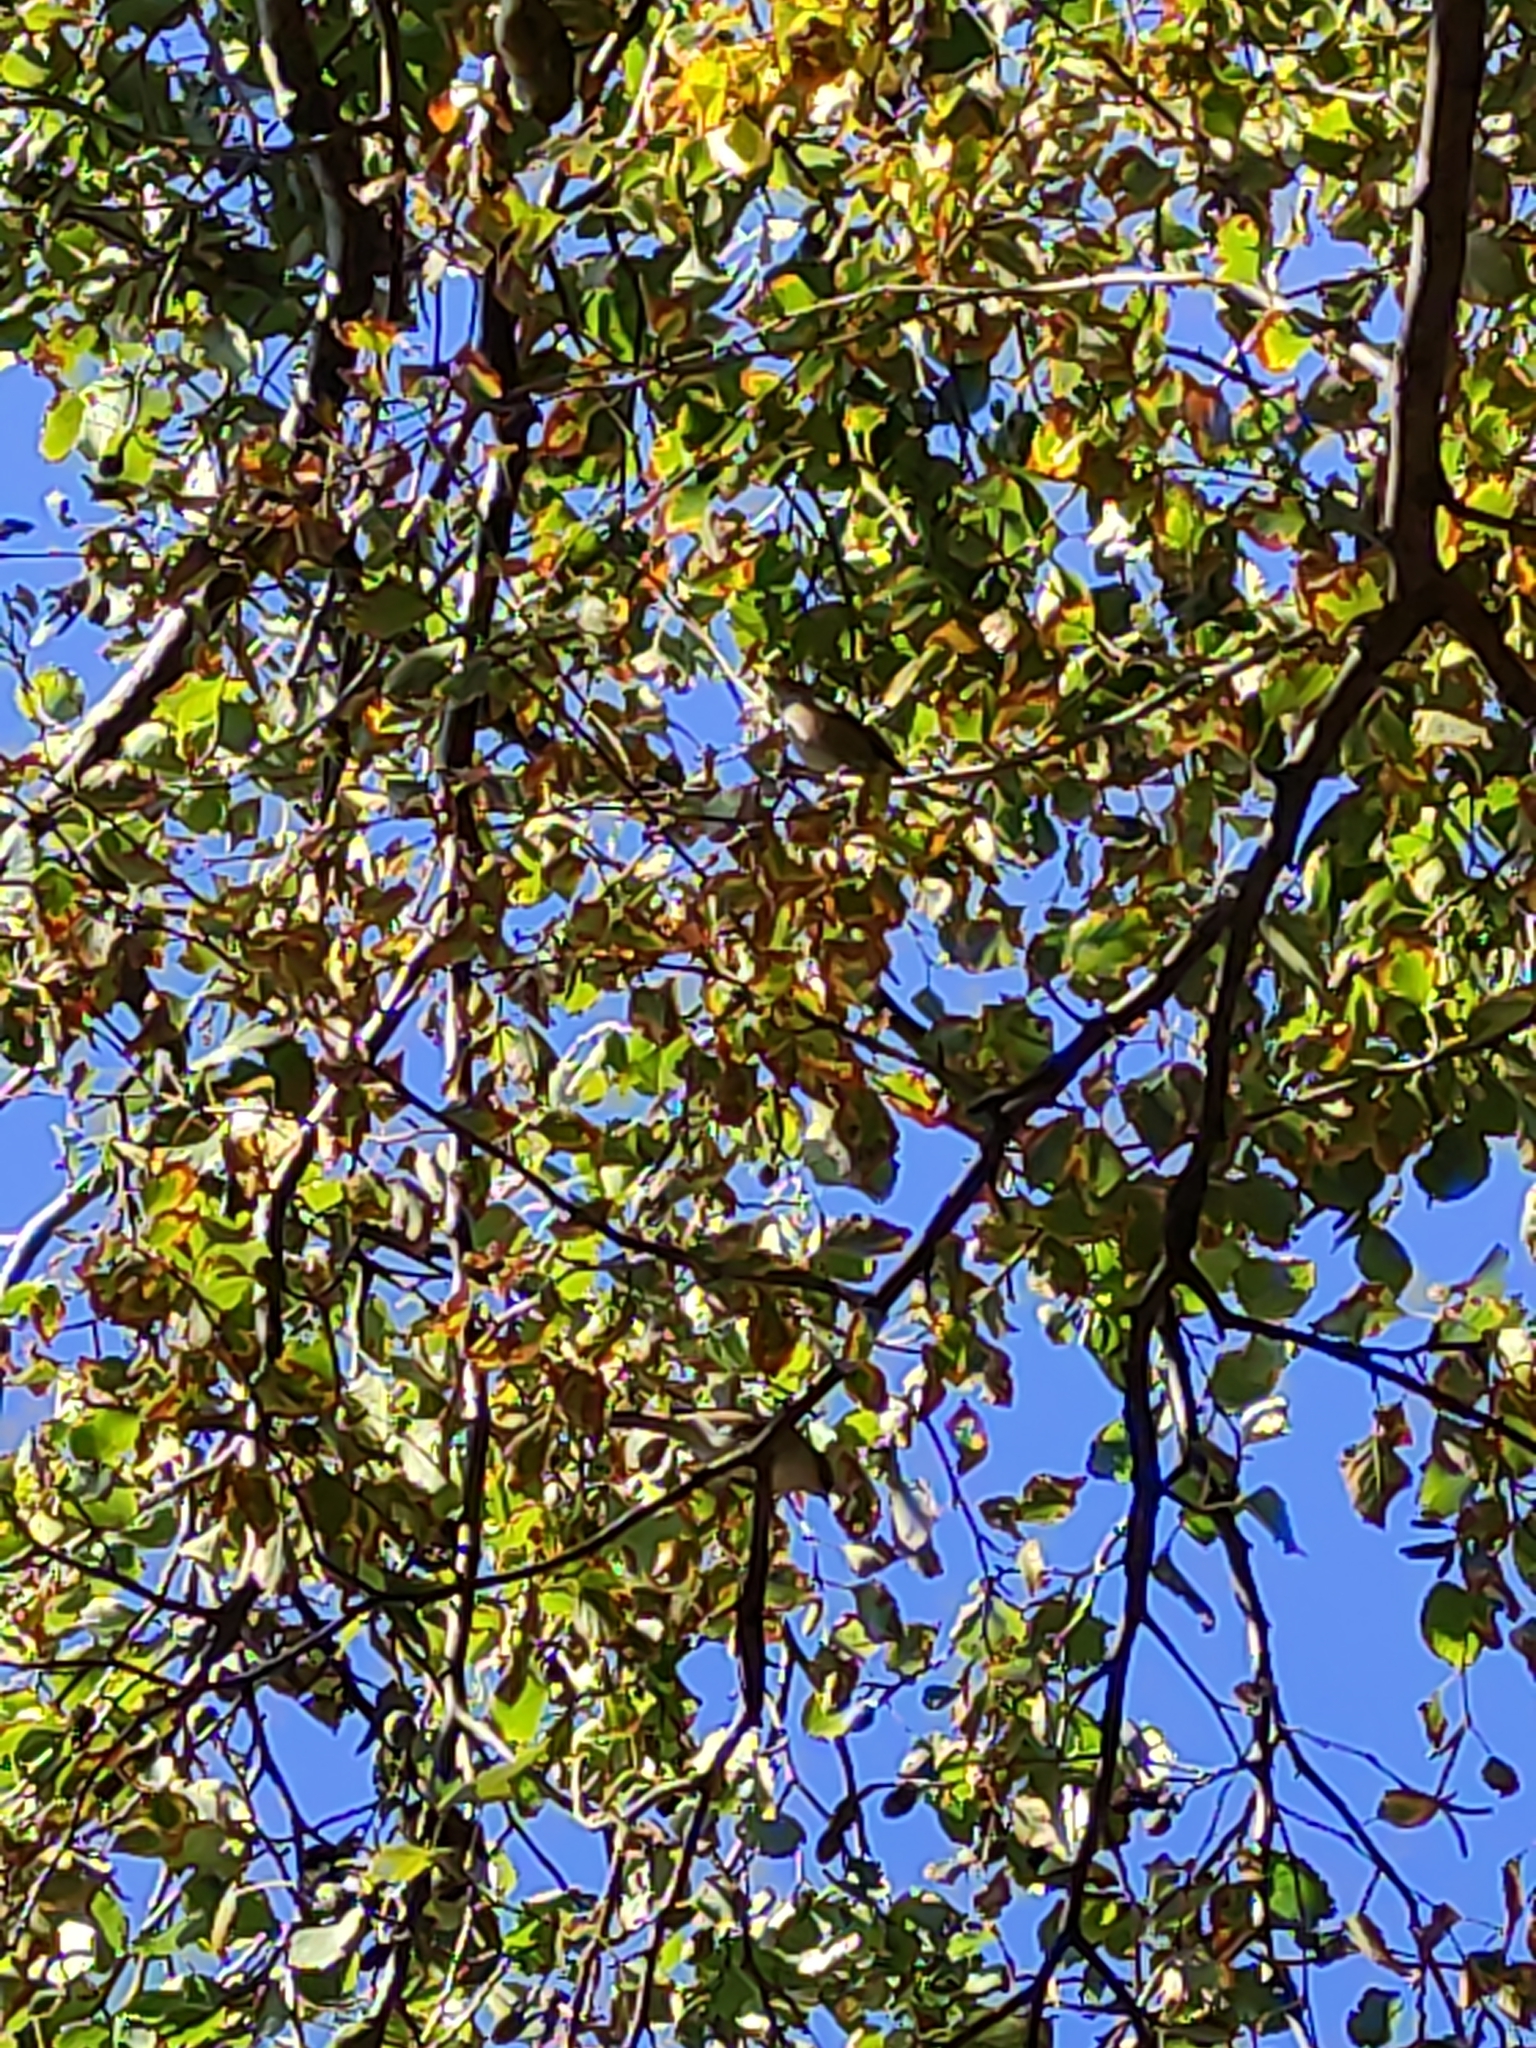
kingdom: Animalia
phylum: Chordata
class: Aves
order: Passeriformes
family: Zosteropidae
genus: Zosterops
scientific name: Zosterops lateralis
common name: Silvereye
